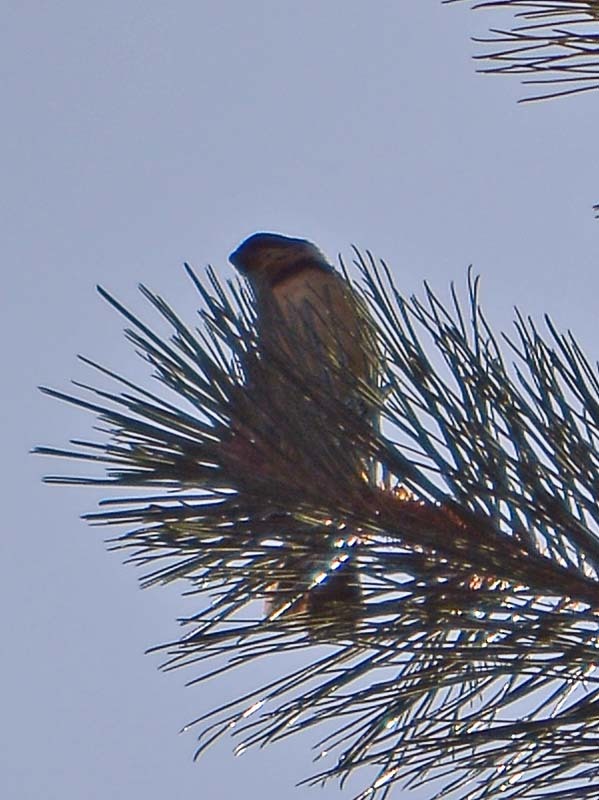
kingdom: Animalia
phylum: Chordata
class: Aves
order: Passeriformes
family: Thraupidae
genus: Sporophila
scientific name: Sporophila torqueola
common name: White-collared seedeater
